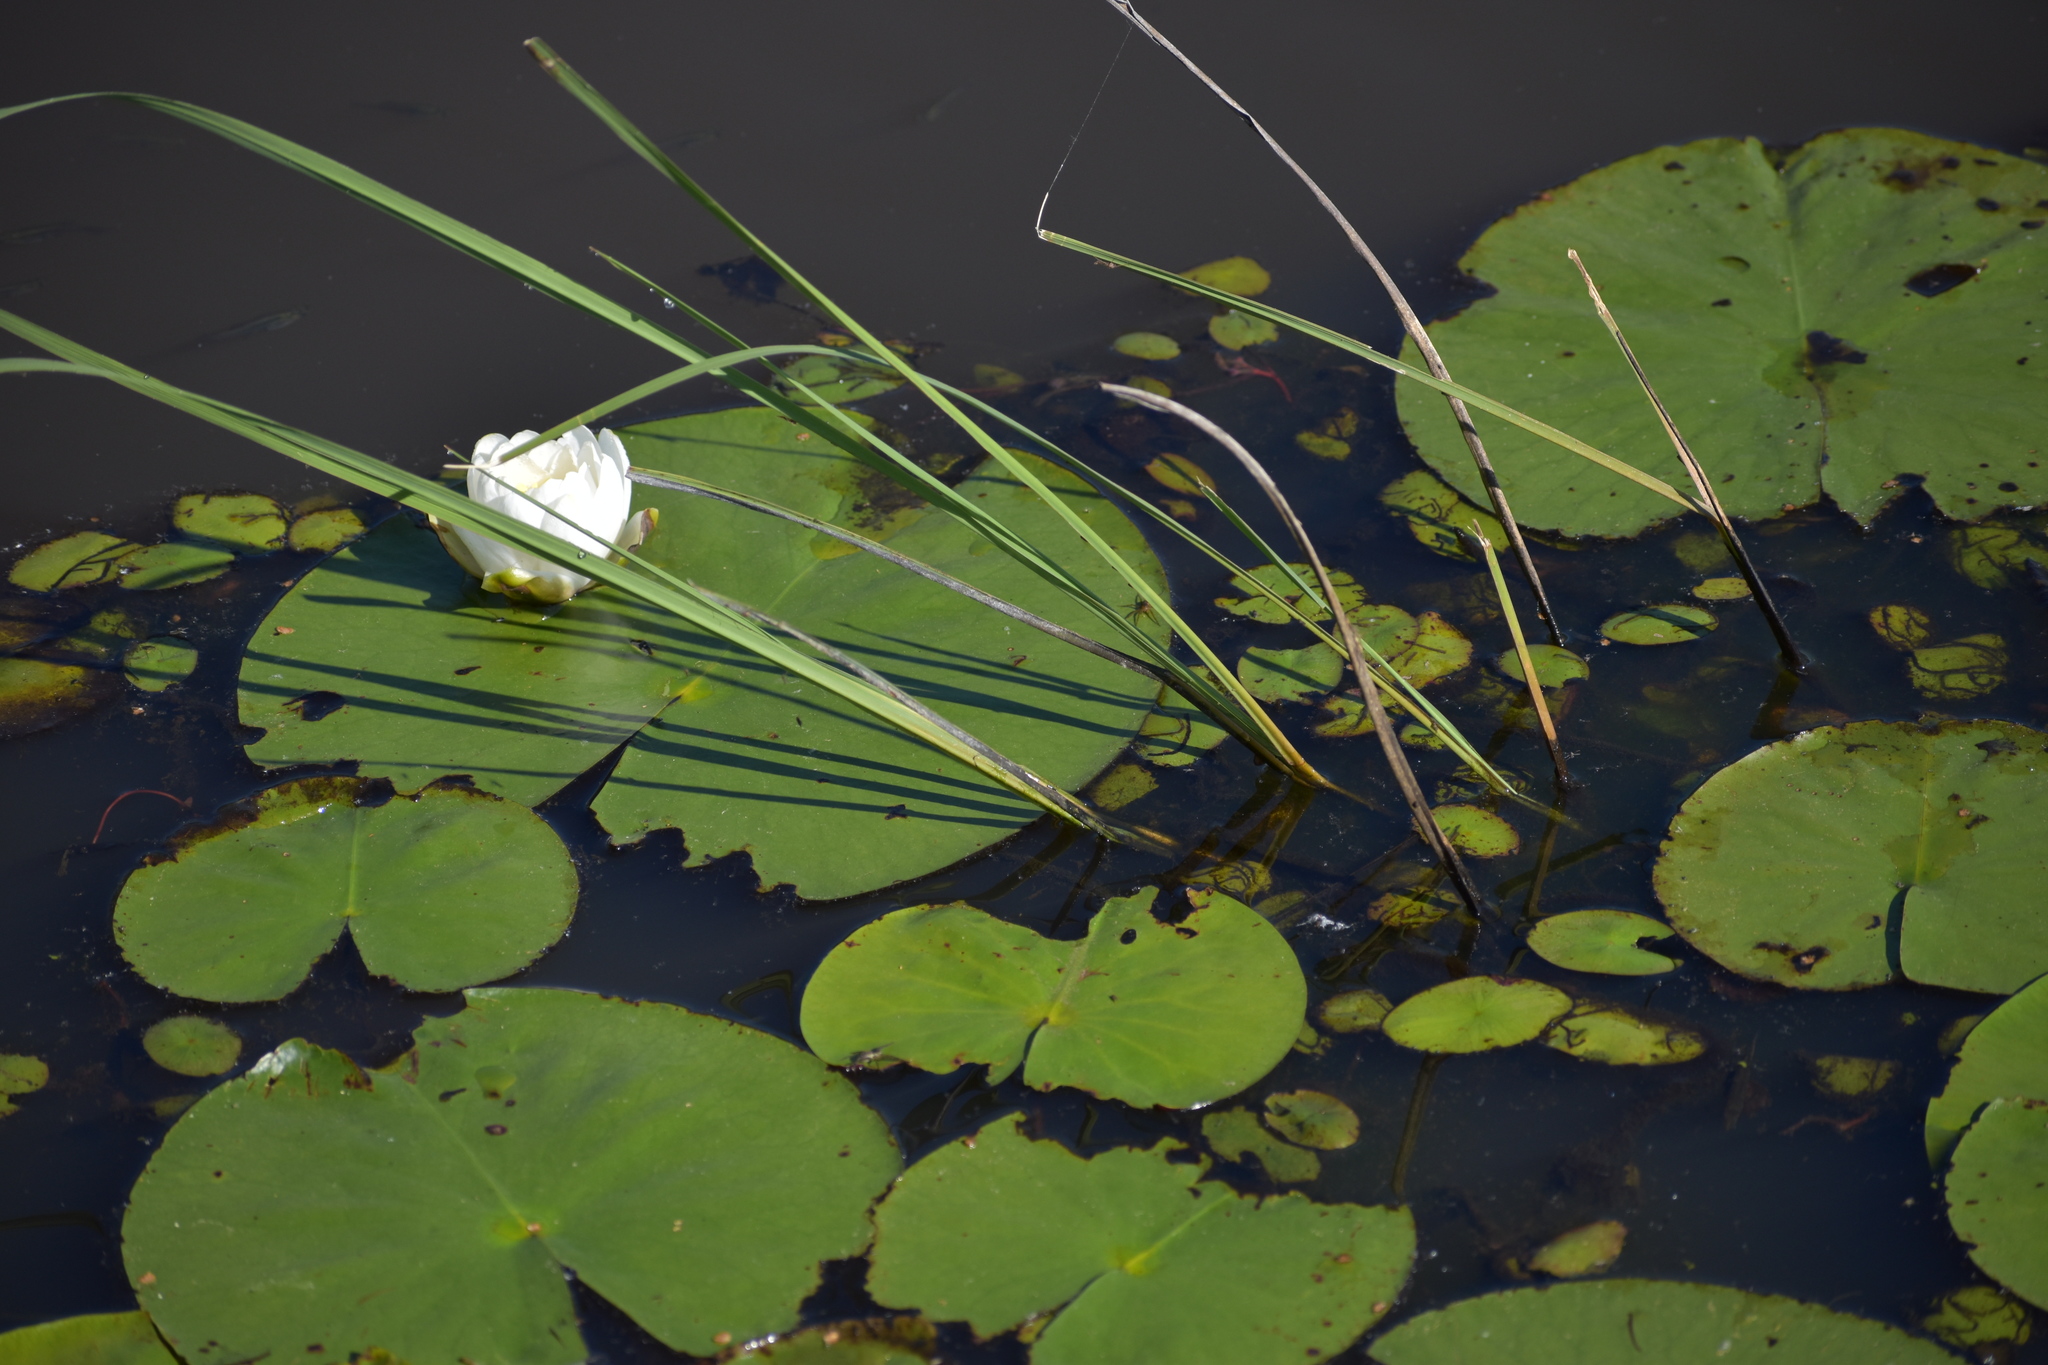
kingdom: Plantae
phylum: Tracheophyta
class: Magnoliopsida
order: Nymphaeales
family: Nymphaeaceae
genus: Nymphaea
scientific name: Nymphaea odorata
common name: Fragrant water-lily
